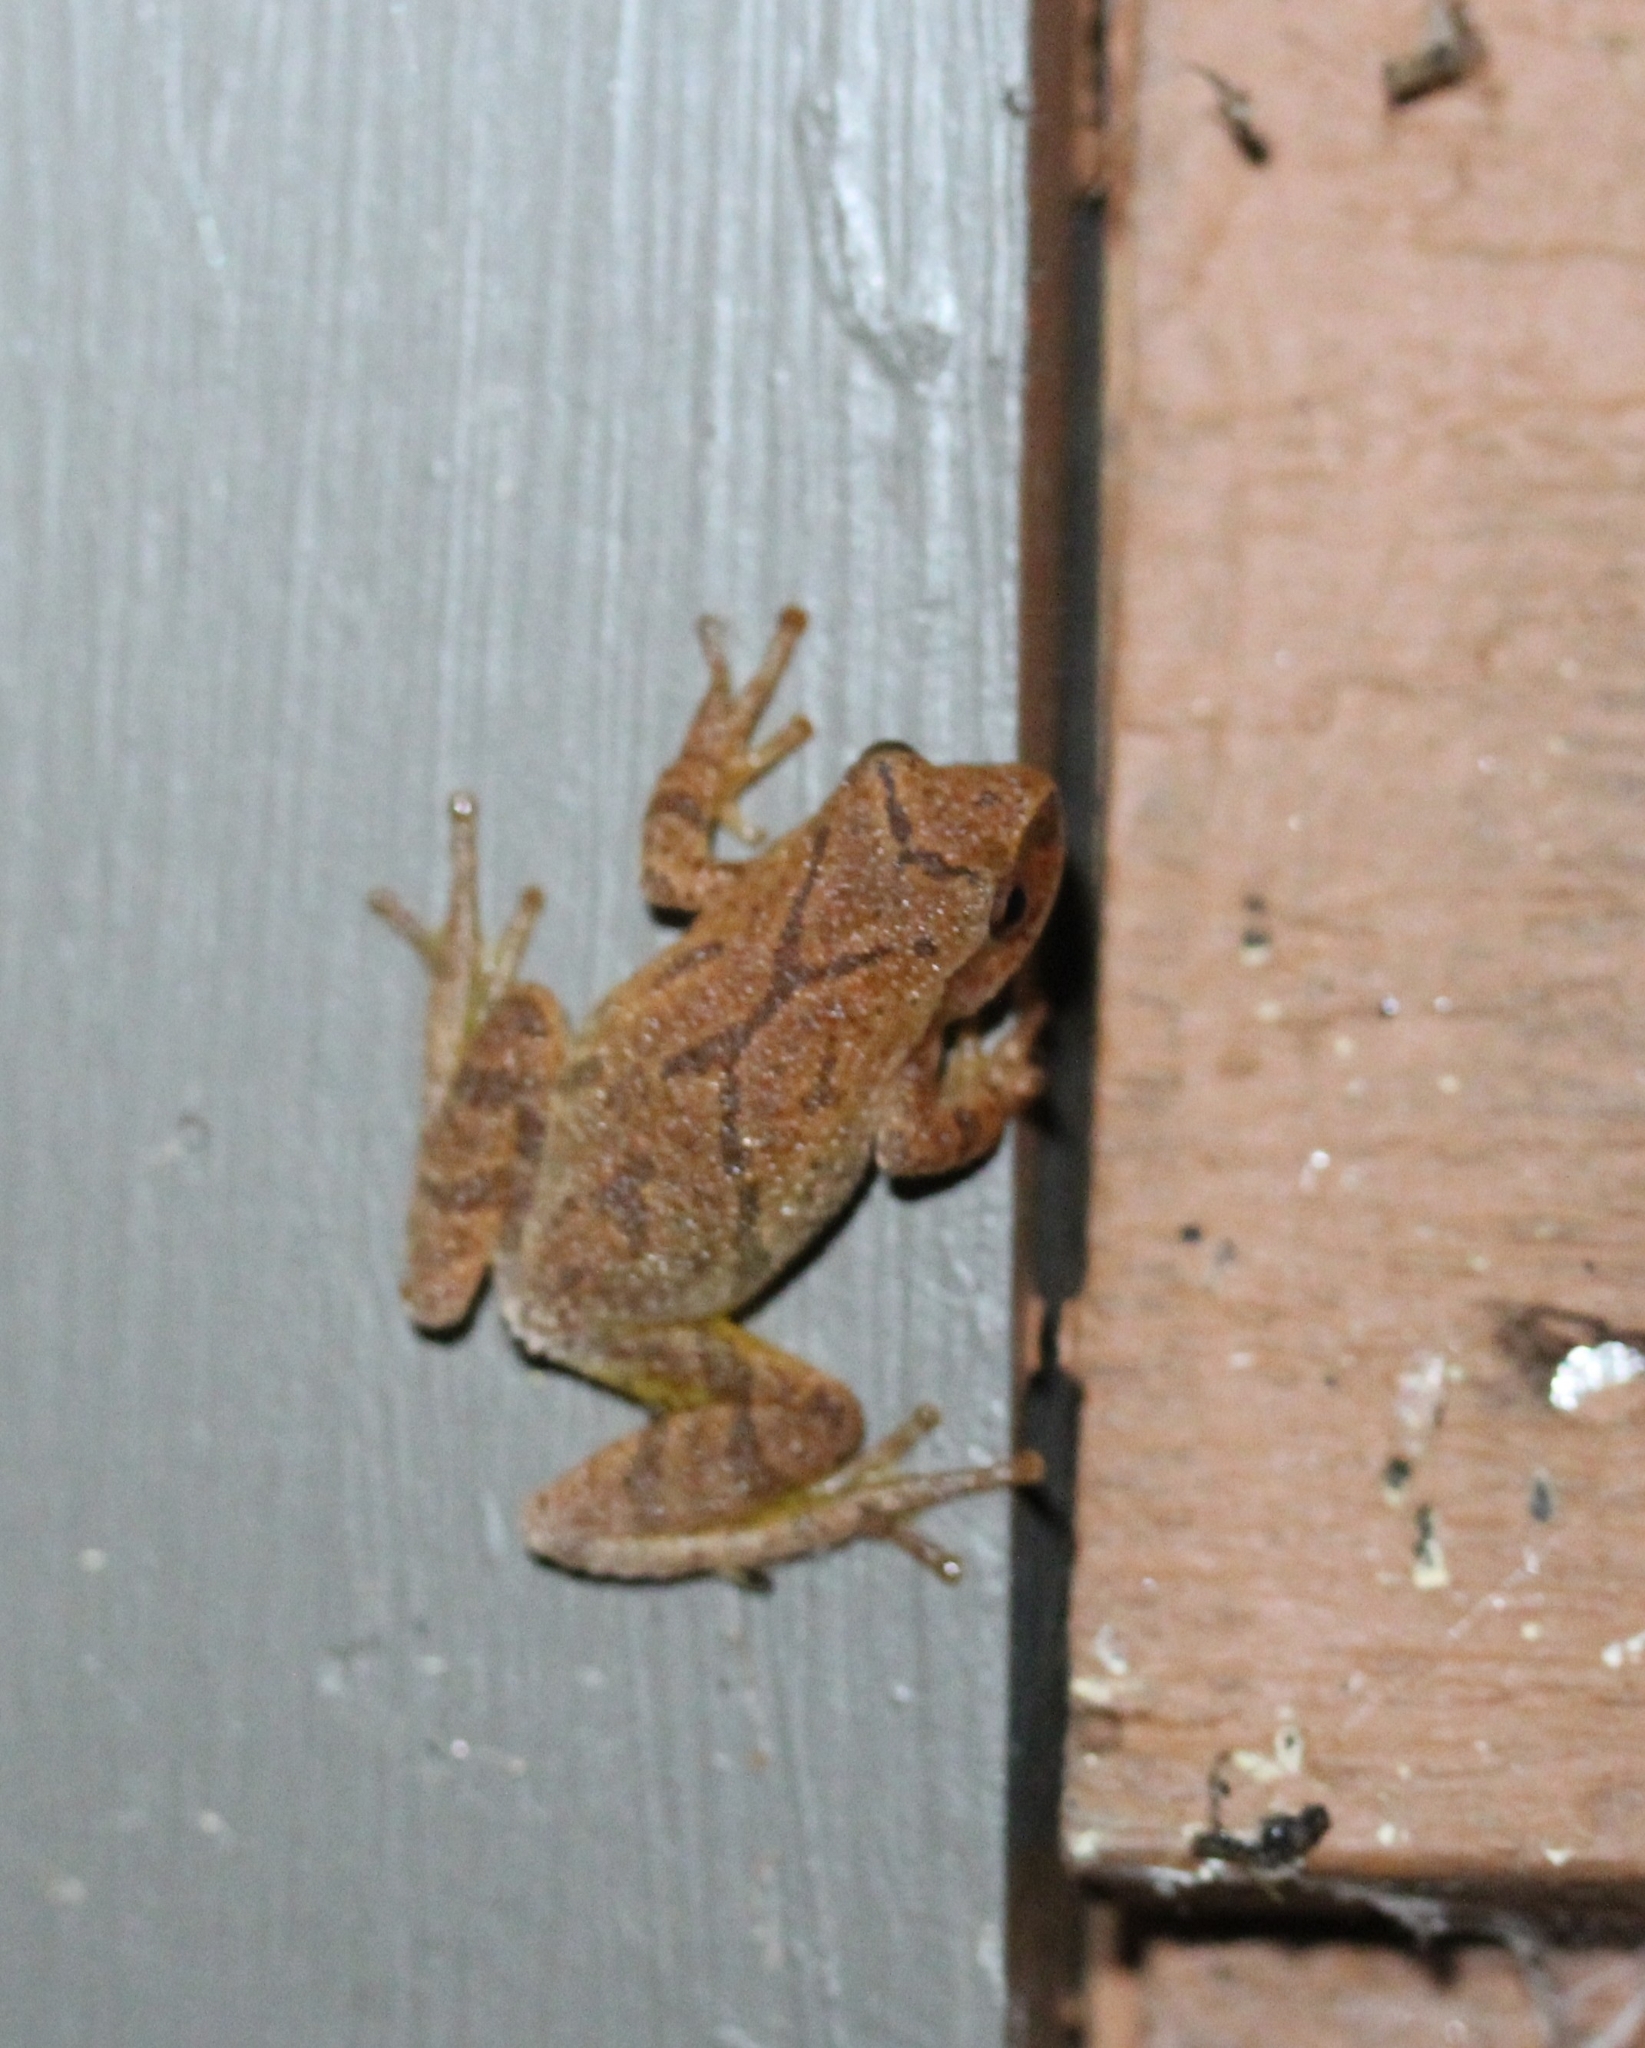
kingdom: Animalia
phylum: Chordata
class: Amphibia
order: Anura
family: Hylidae
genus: Pseudacris
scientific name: Pseudacris crucifer
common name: Spring peeper
